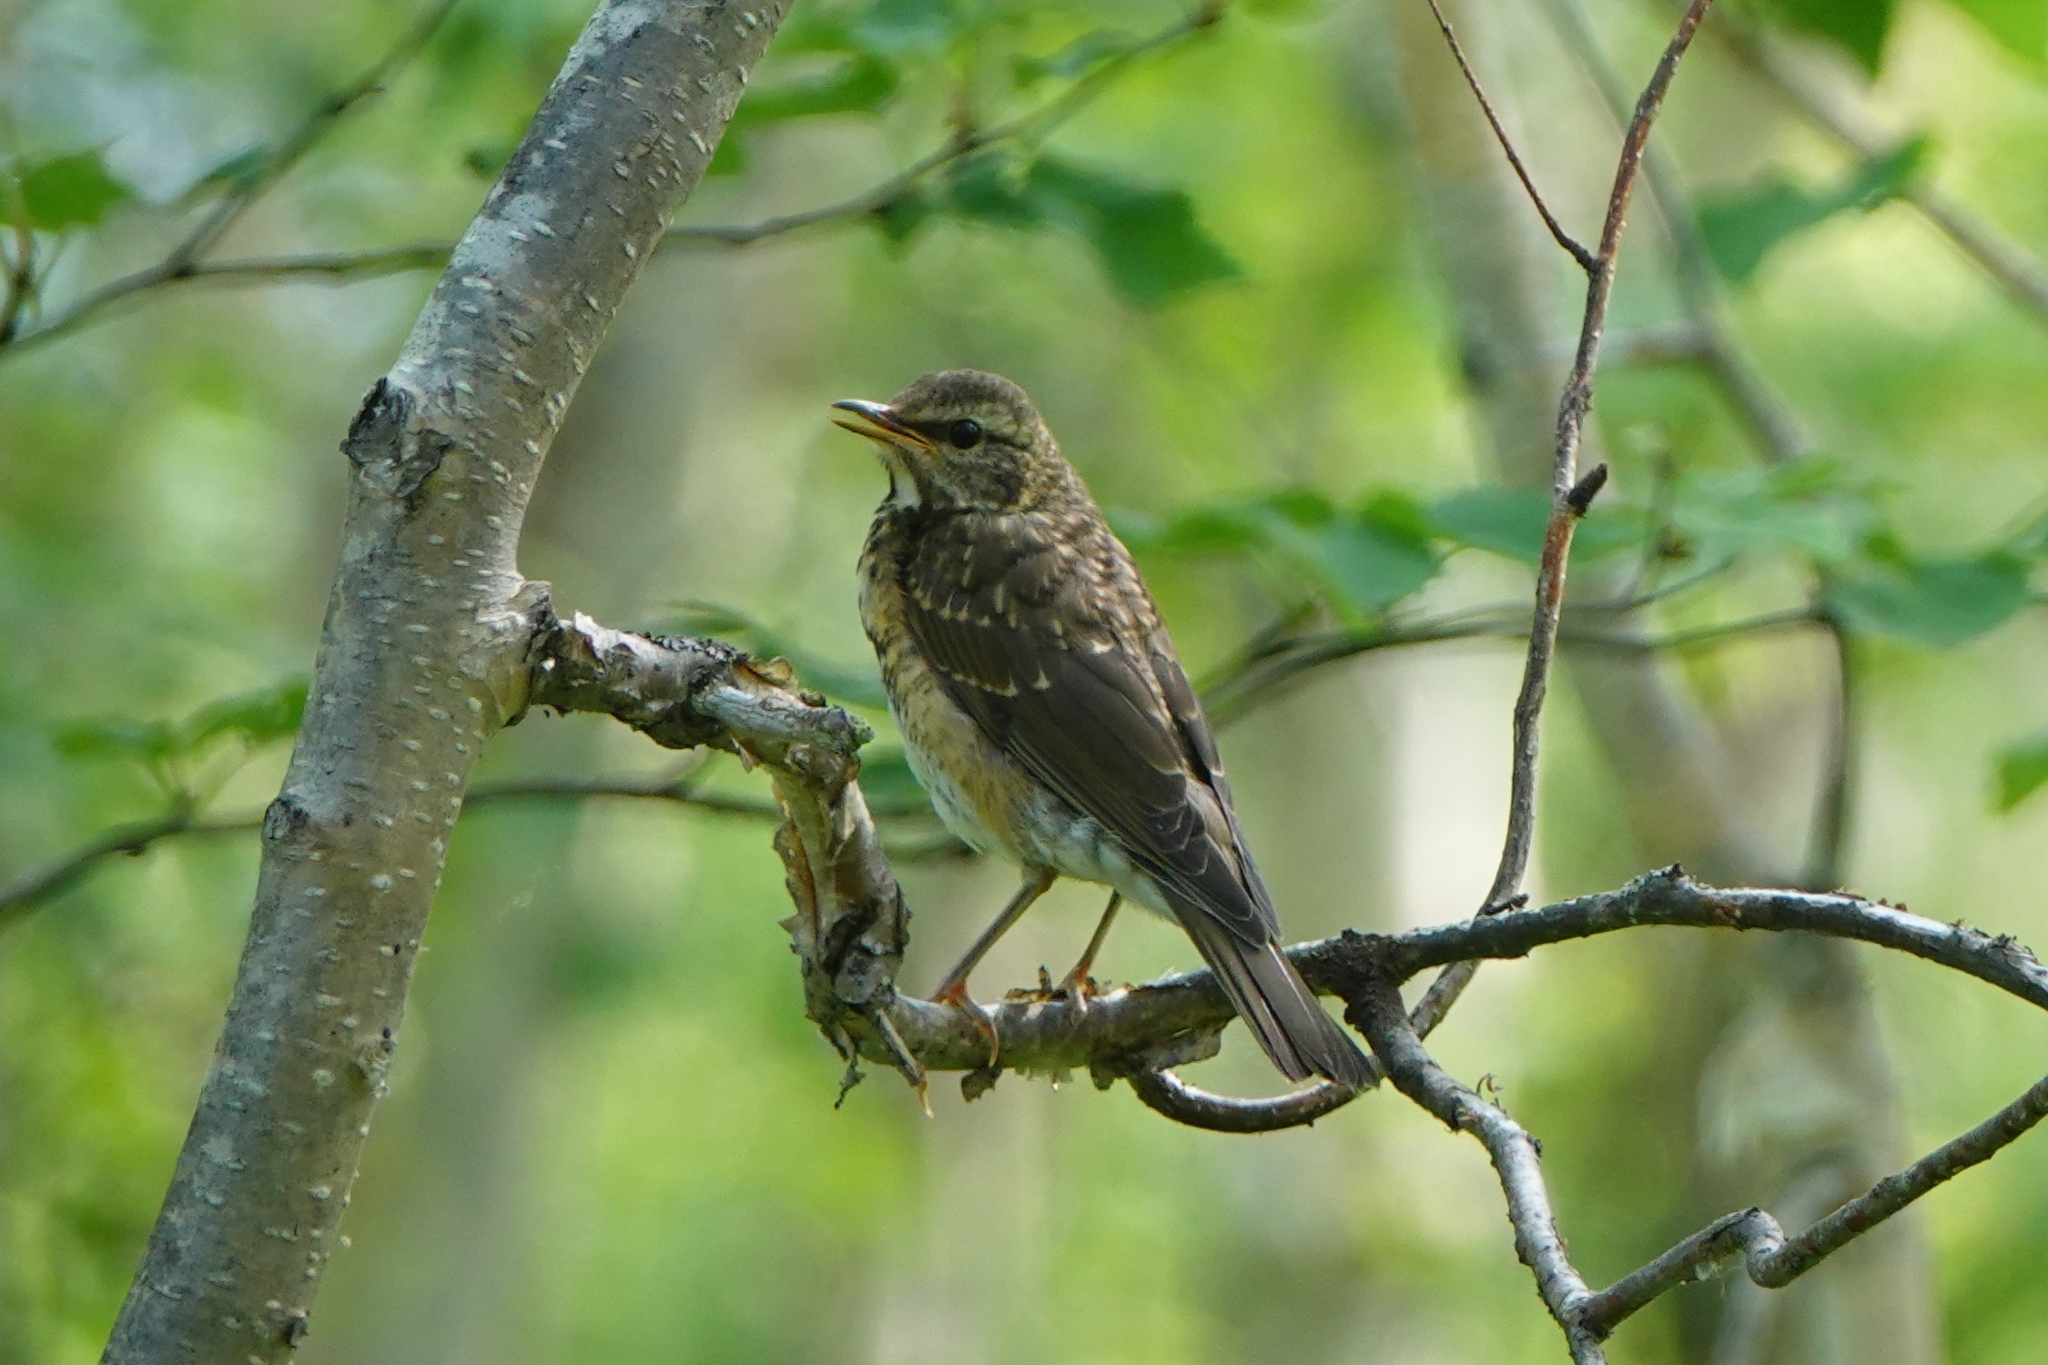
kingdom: Animalia
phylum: Chordata
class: Aves
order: Passeriformes
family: Turdidae
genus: Turdus
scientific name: Turdus obscurus
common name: Eyebrowed thrush
